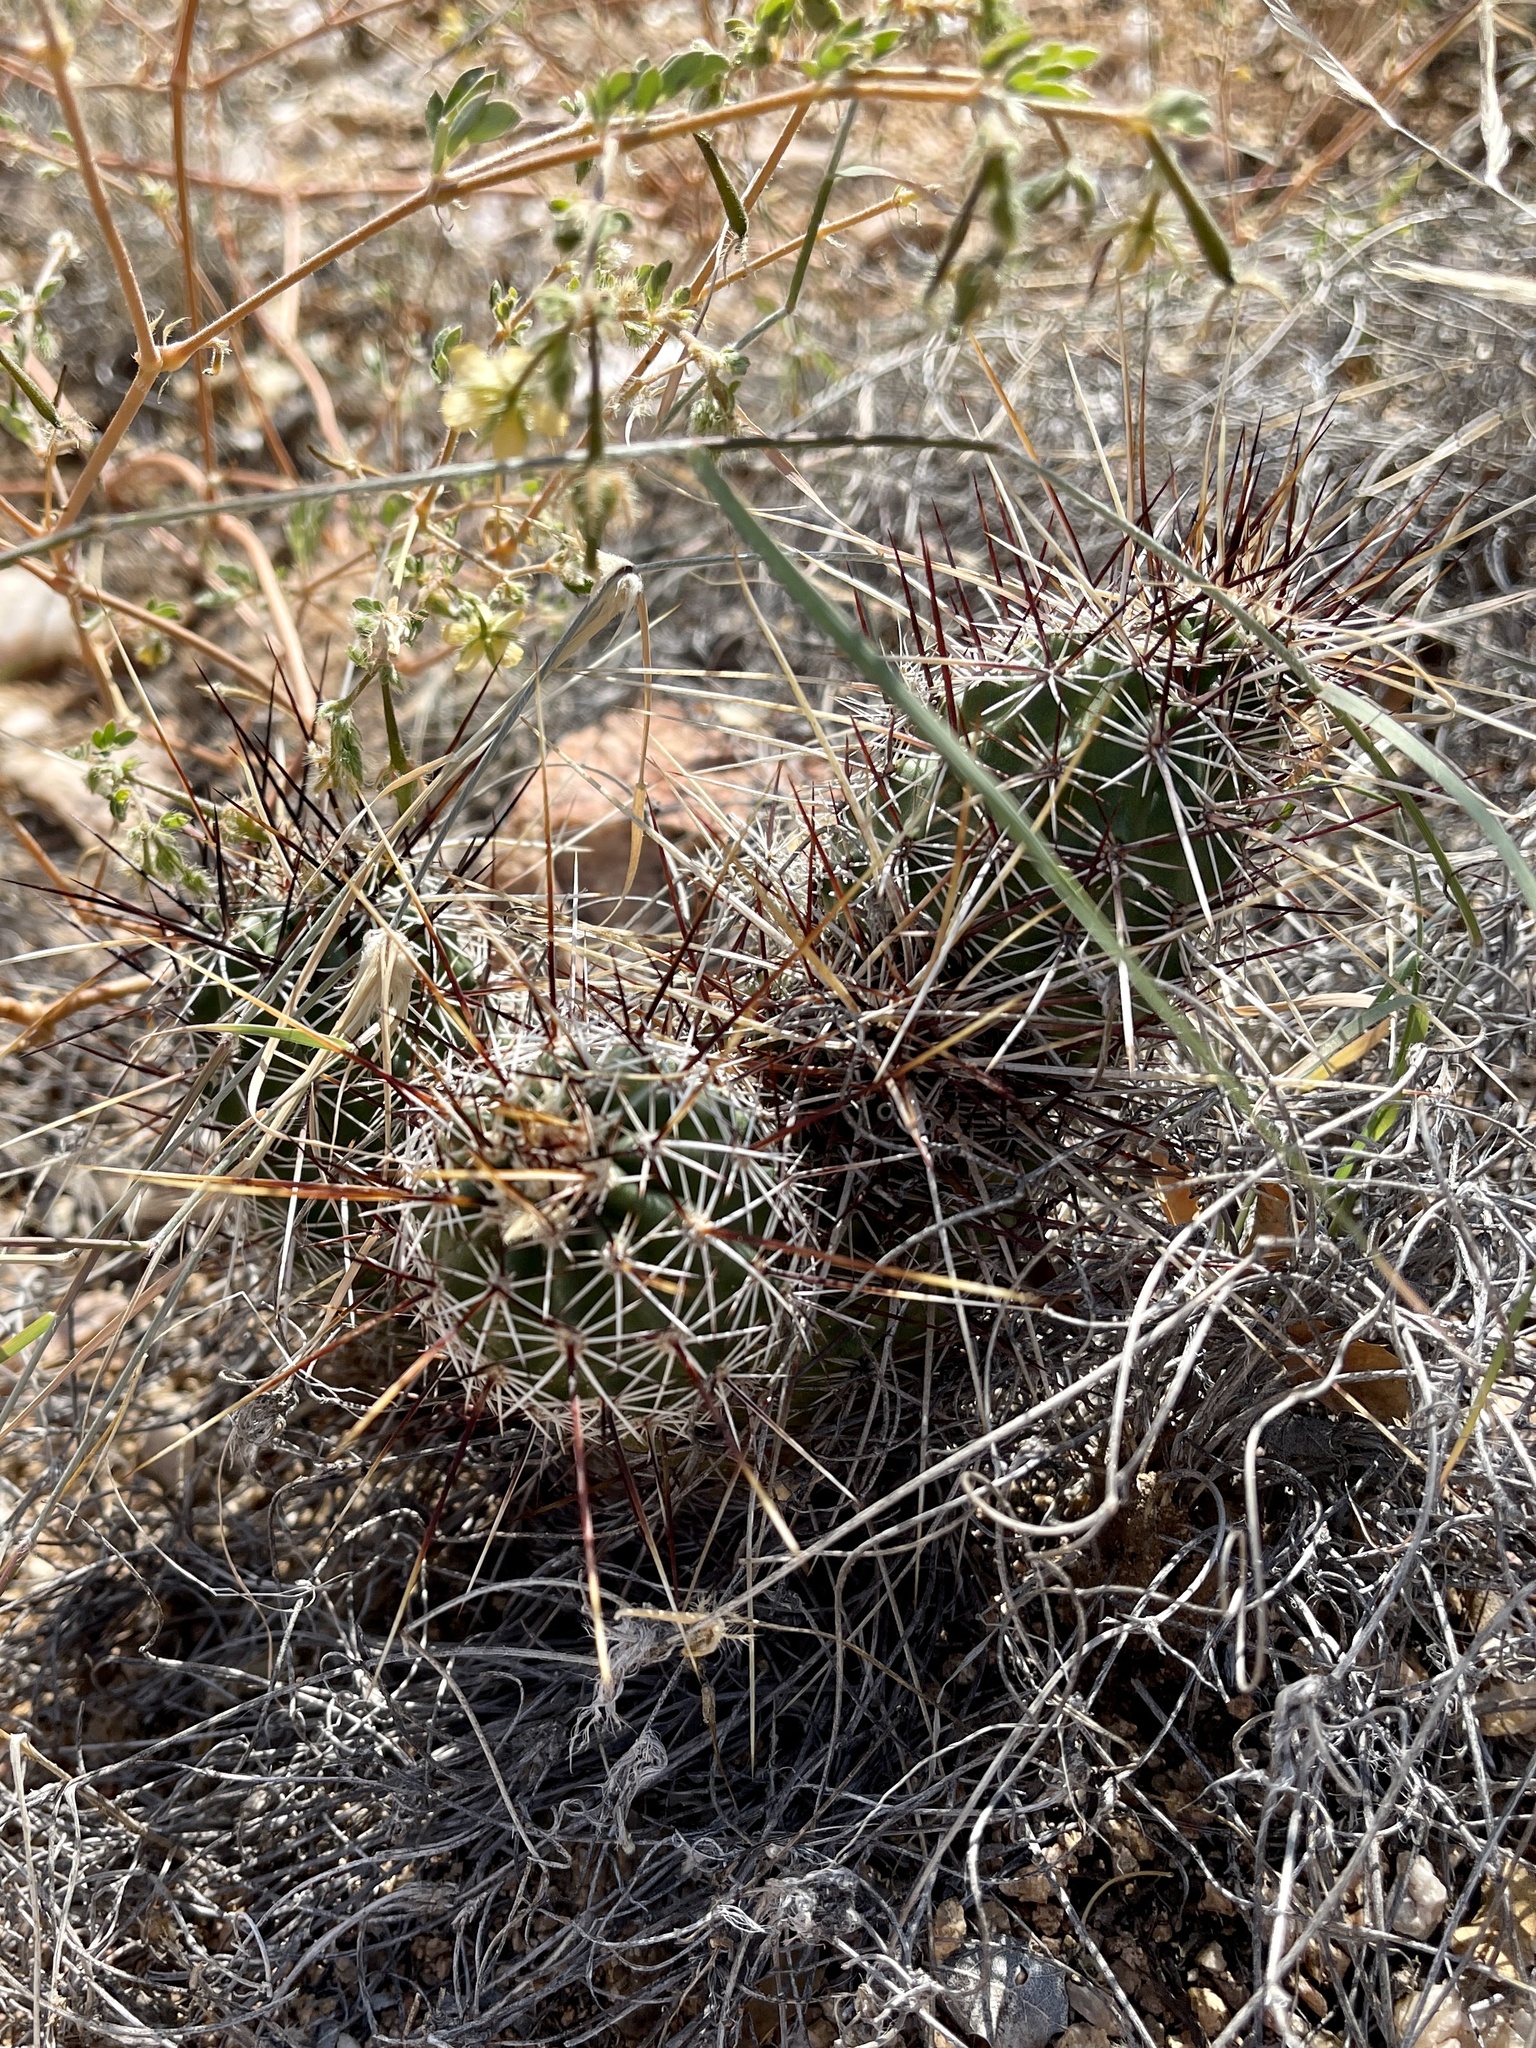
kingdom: Plantae
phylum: Tracheophyta
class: Magnoliopsida
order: Caryophyllales
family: Cactaceae
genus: Echinocereus
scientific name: Echinocereus fasciculatus
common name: Bundle hedgehog
